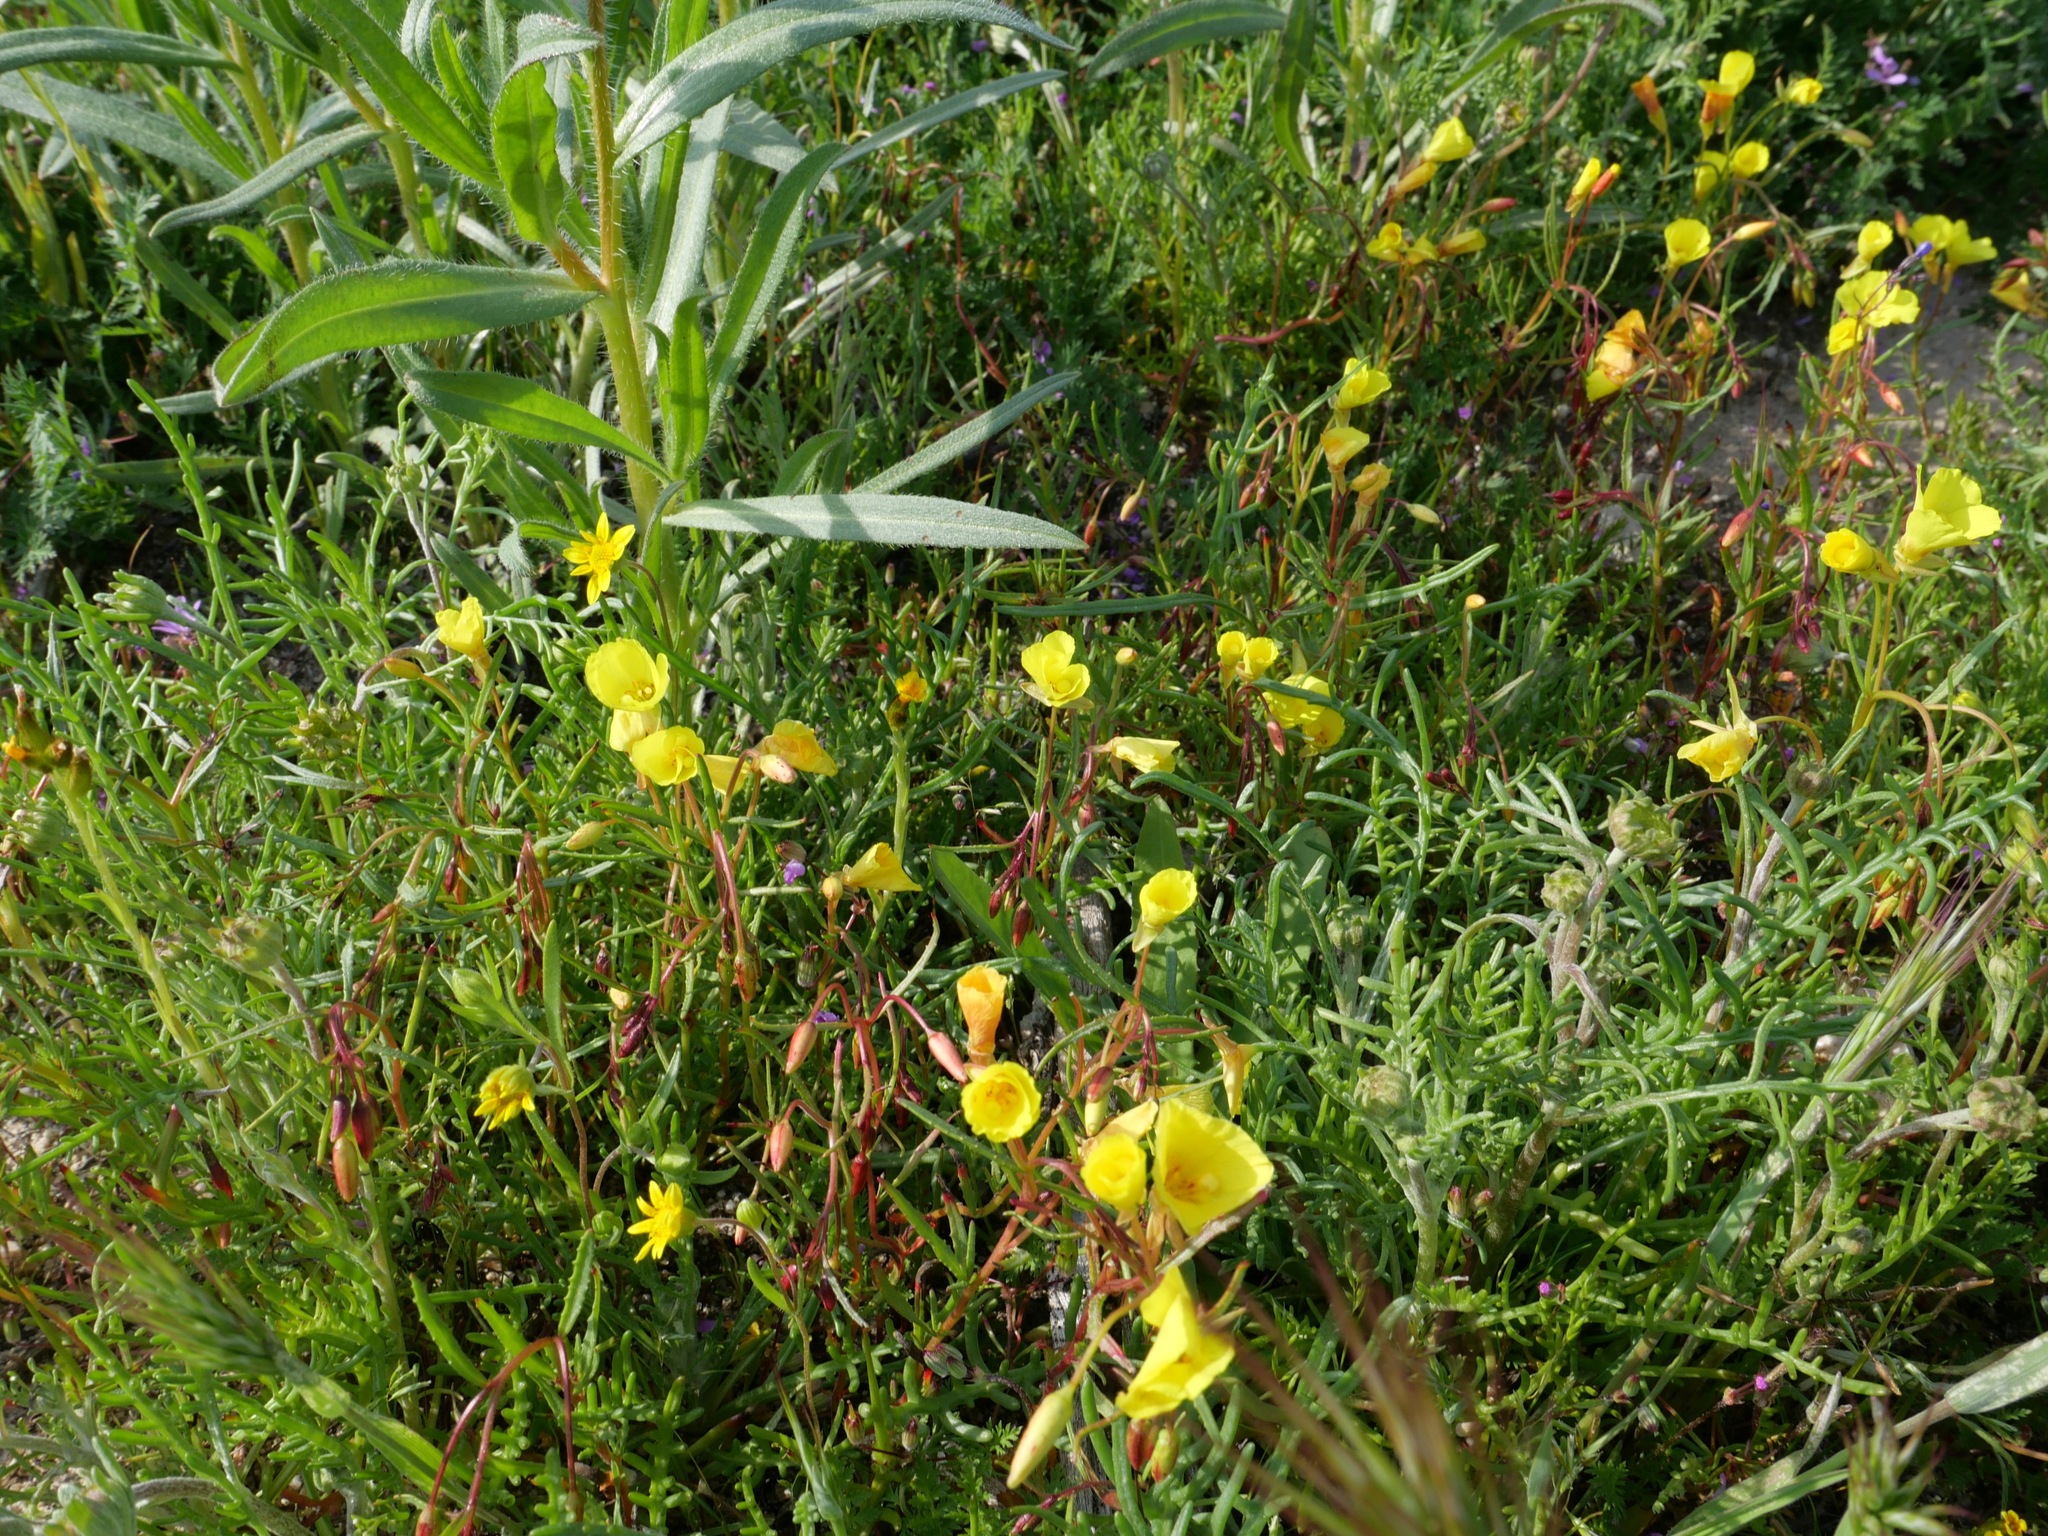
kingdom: Plantae
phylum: Tracheophyta
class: Magnoliopsida
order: Myrtales
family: Onagraceae
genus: Camissonia
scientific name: Camissonia campestris
